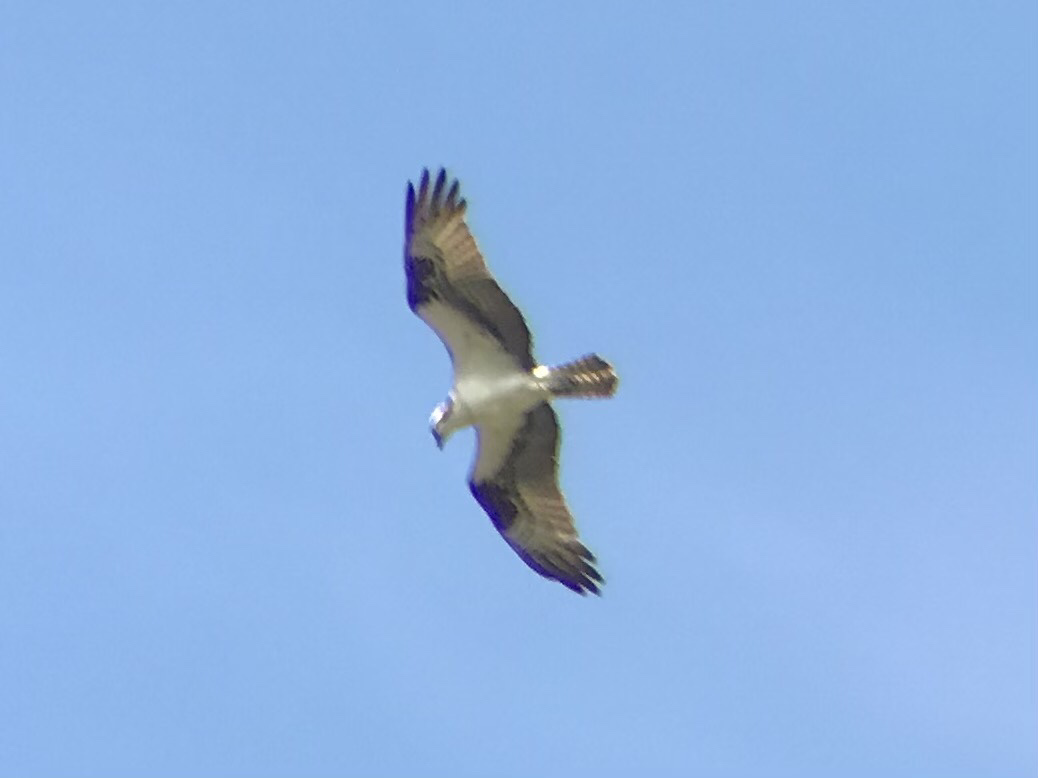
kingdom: Animalia
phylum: Chordata
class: Aves
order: Accipitriformes
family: Pandionidae
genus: Pandion
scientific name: Pandion haliaetus
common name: Osprey
